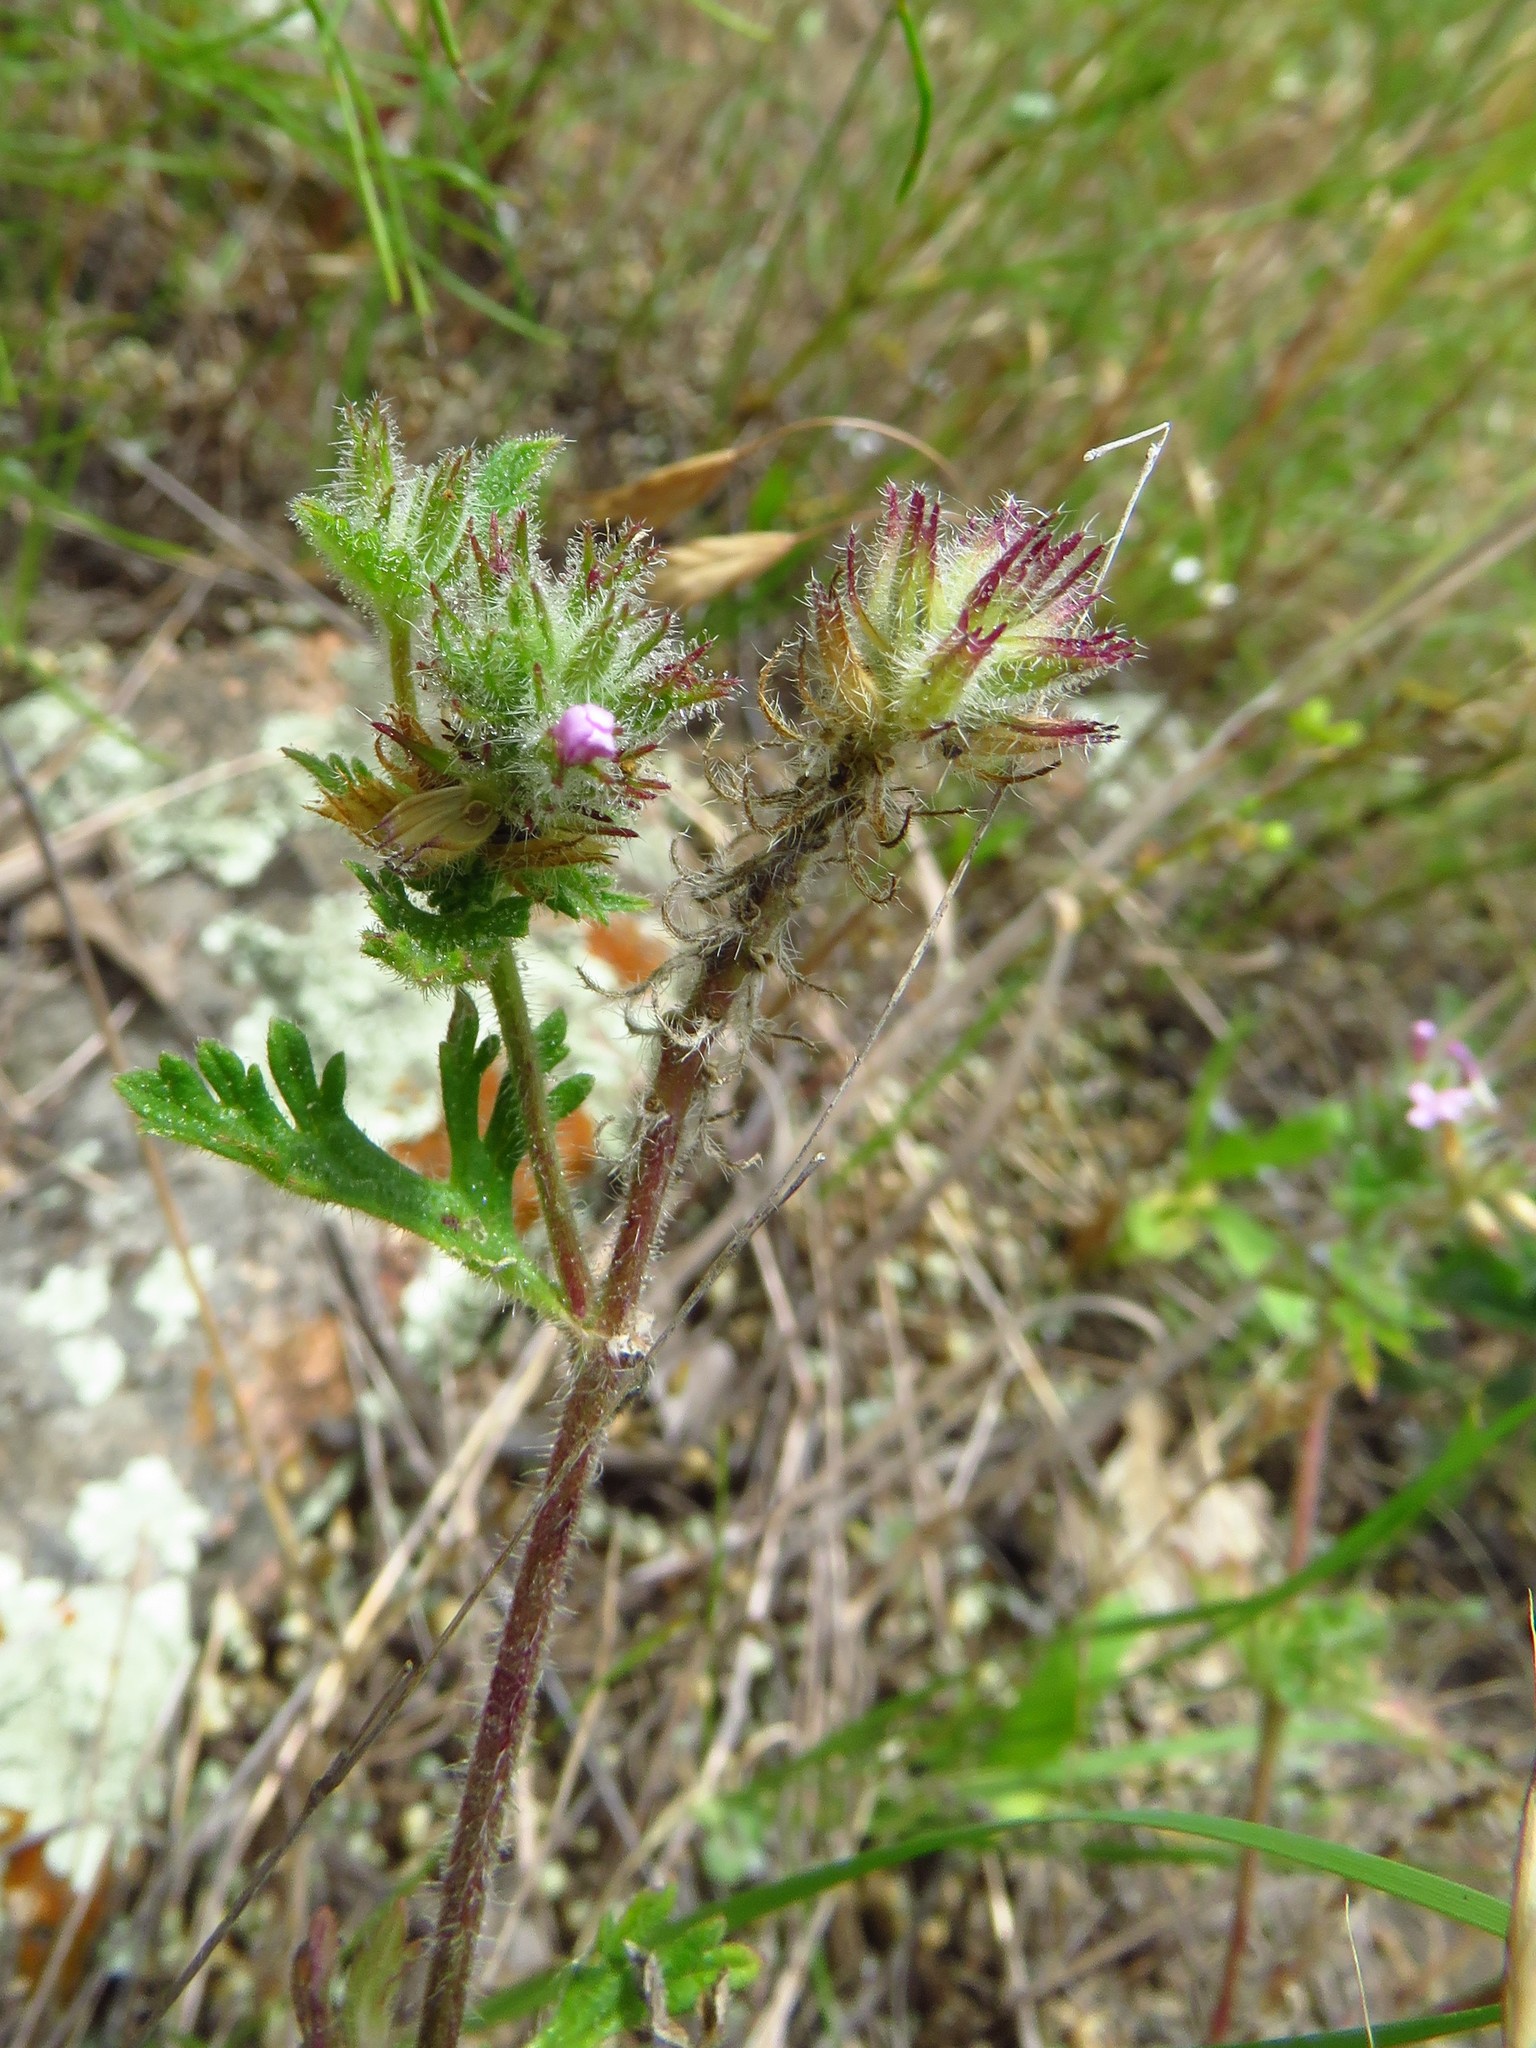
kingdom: Plantae
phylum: Tracheophyta
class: Magnoliopsida
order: Lamiales
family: Verbenaceae
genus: Verbena
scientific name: Verbena pumila
